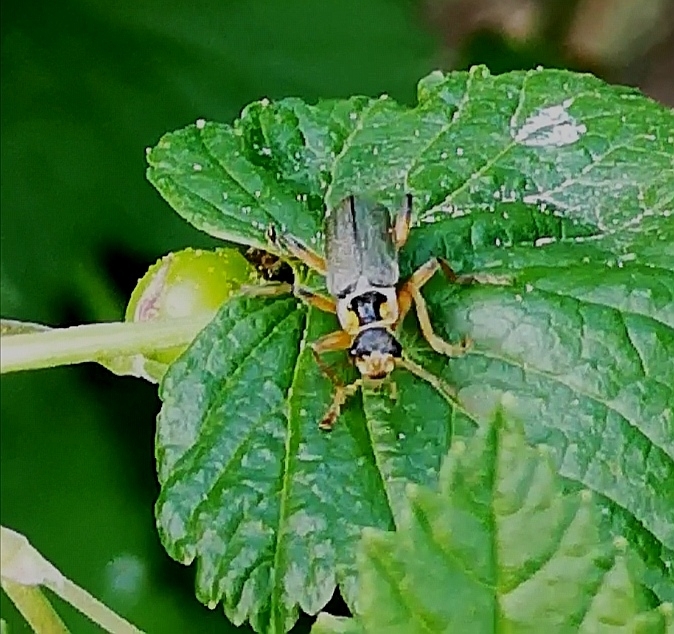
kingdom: Animalia
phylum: Arthropoda
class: Insecta
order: Coleoptera
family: Cantharidae
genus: Cantharis
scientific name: Cantharis nigricans
